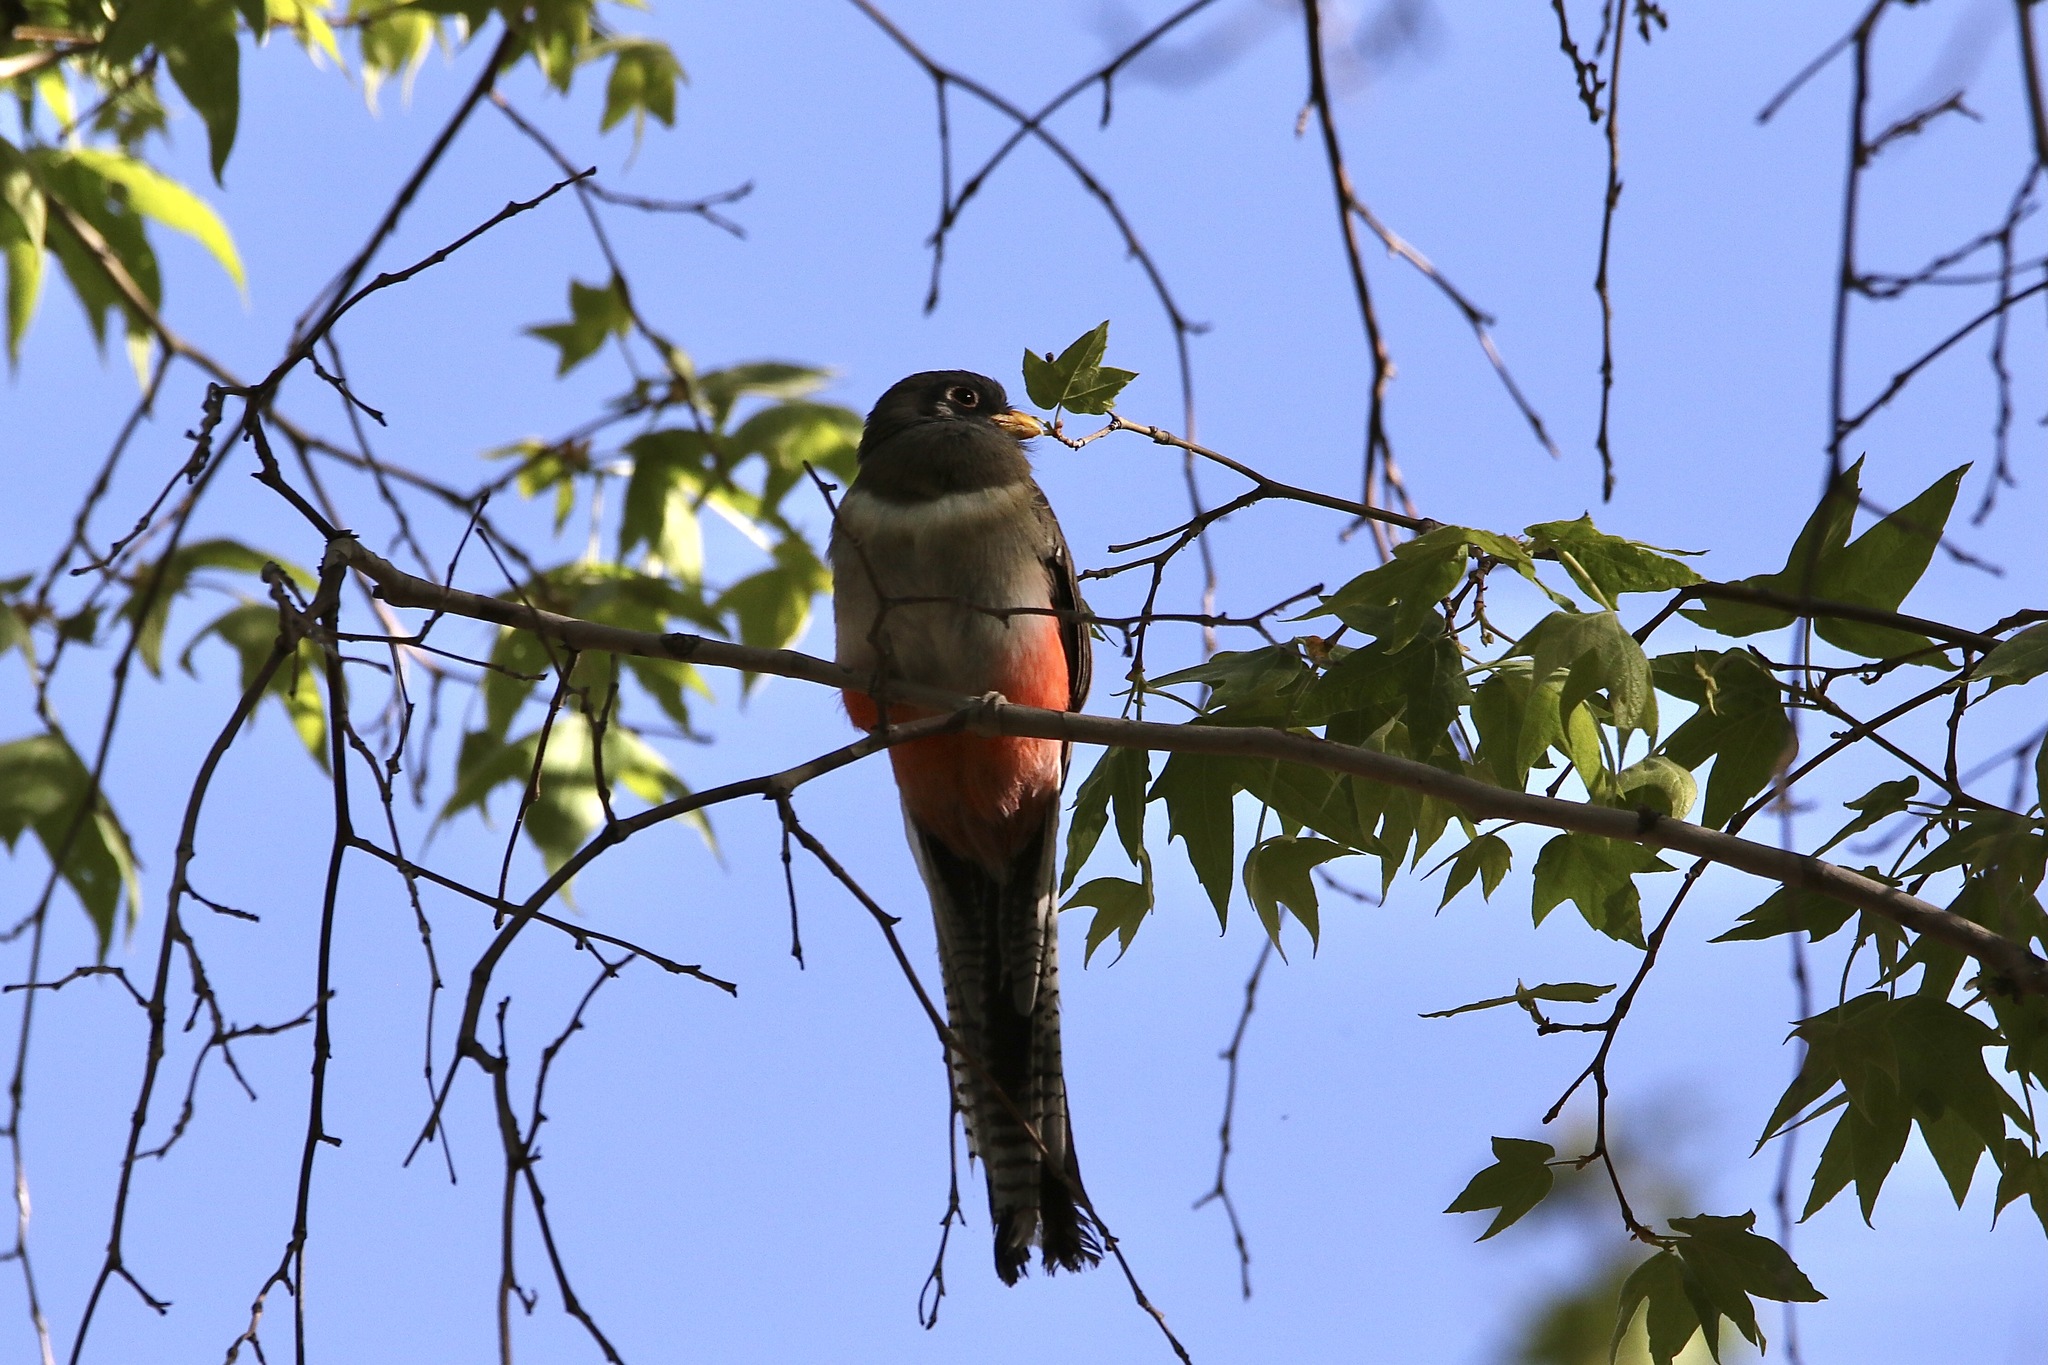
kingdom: Animalia
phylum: Chordata
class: Aves
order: Trogoniformes
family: Trogonidae
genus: Trogon
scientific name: Trogon elegans
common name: Elegant trogon
